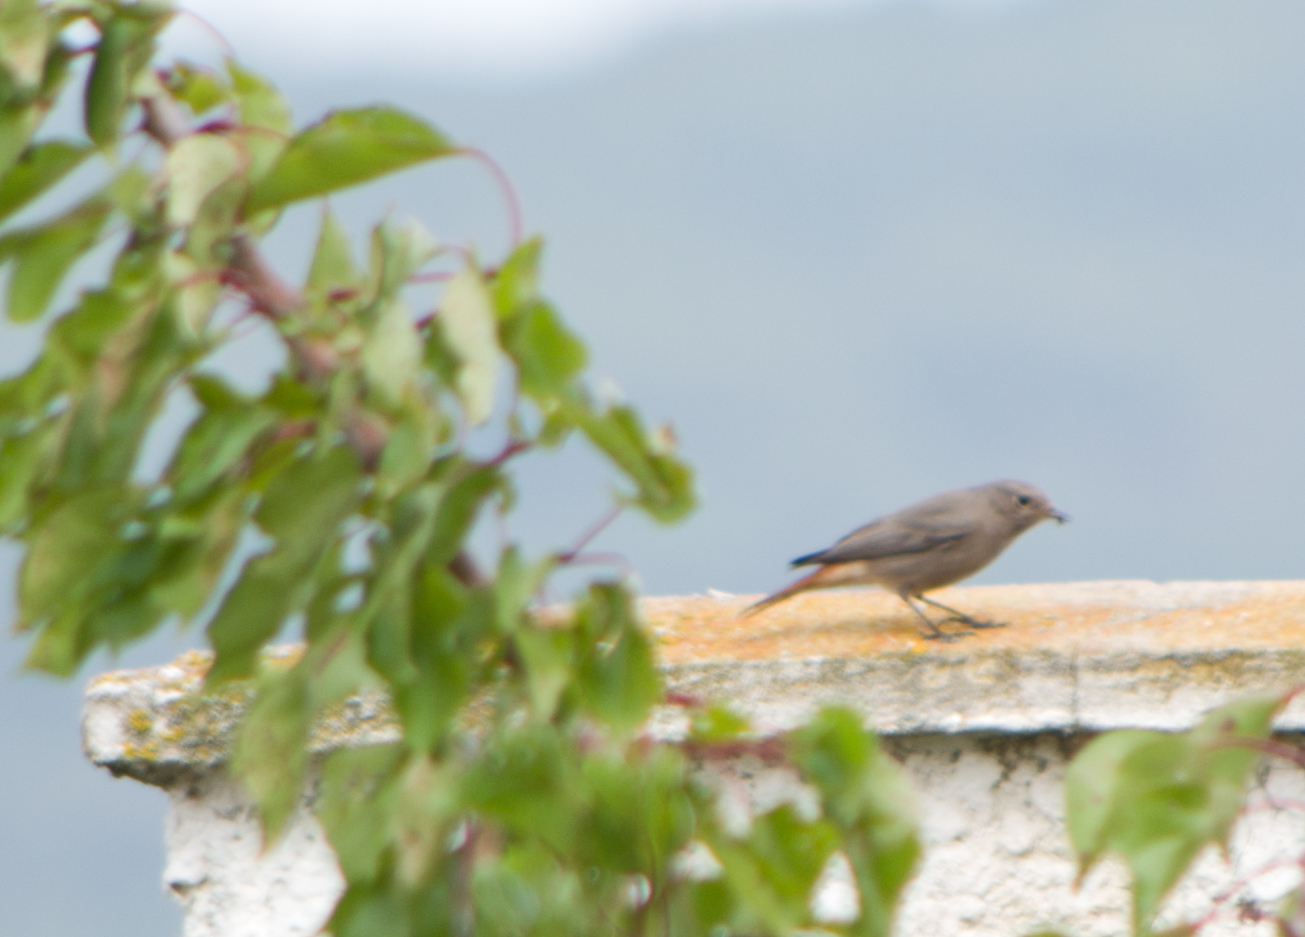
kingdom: Animalia
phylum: Chordata
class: Aves
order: Passeriformes
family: Muscicapidae
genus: Phoenicurus
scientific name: Phoenicurus ochruros
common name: Black redstart
